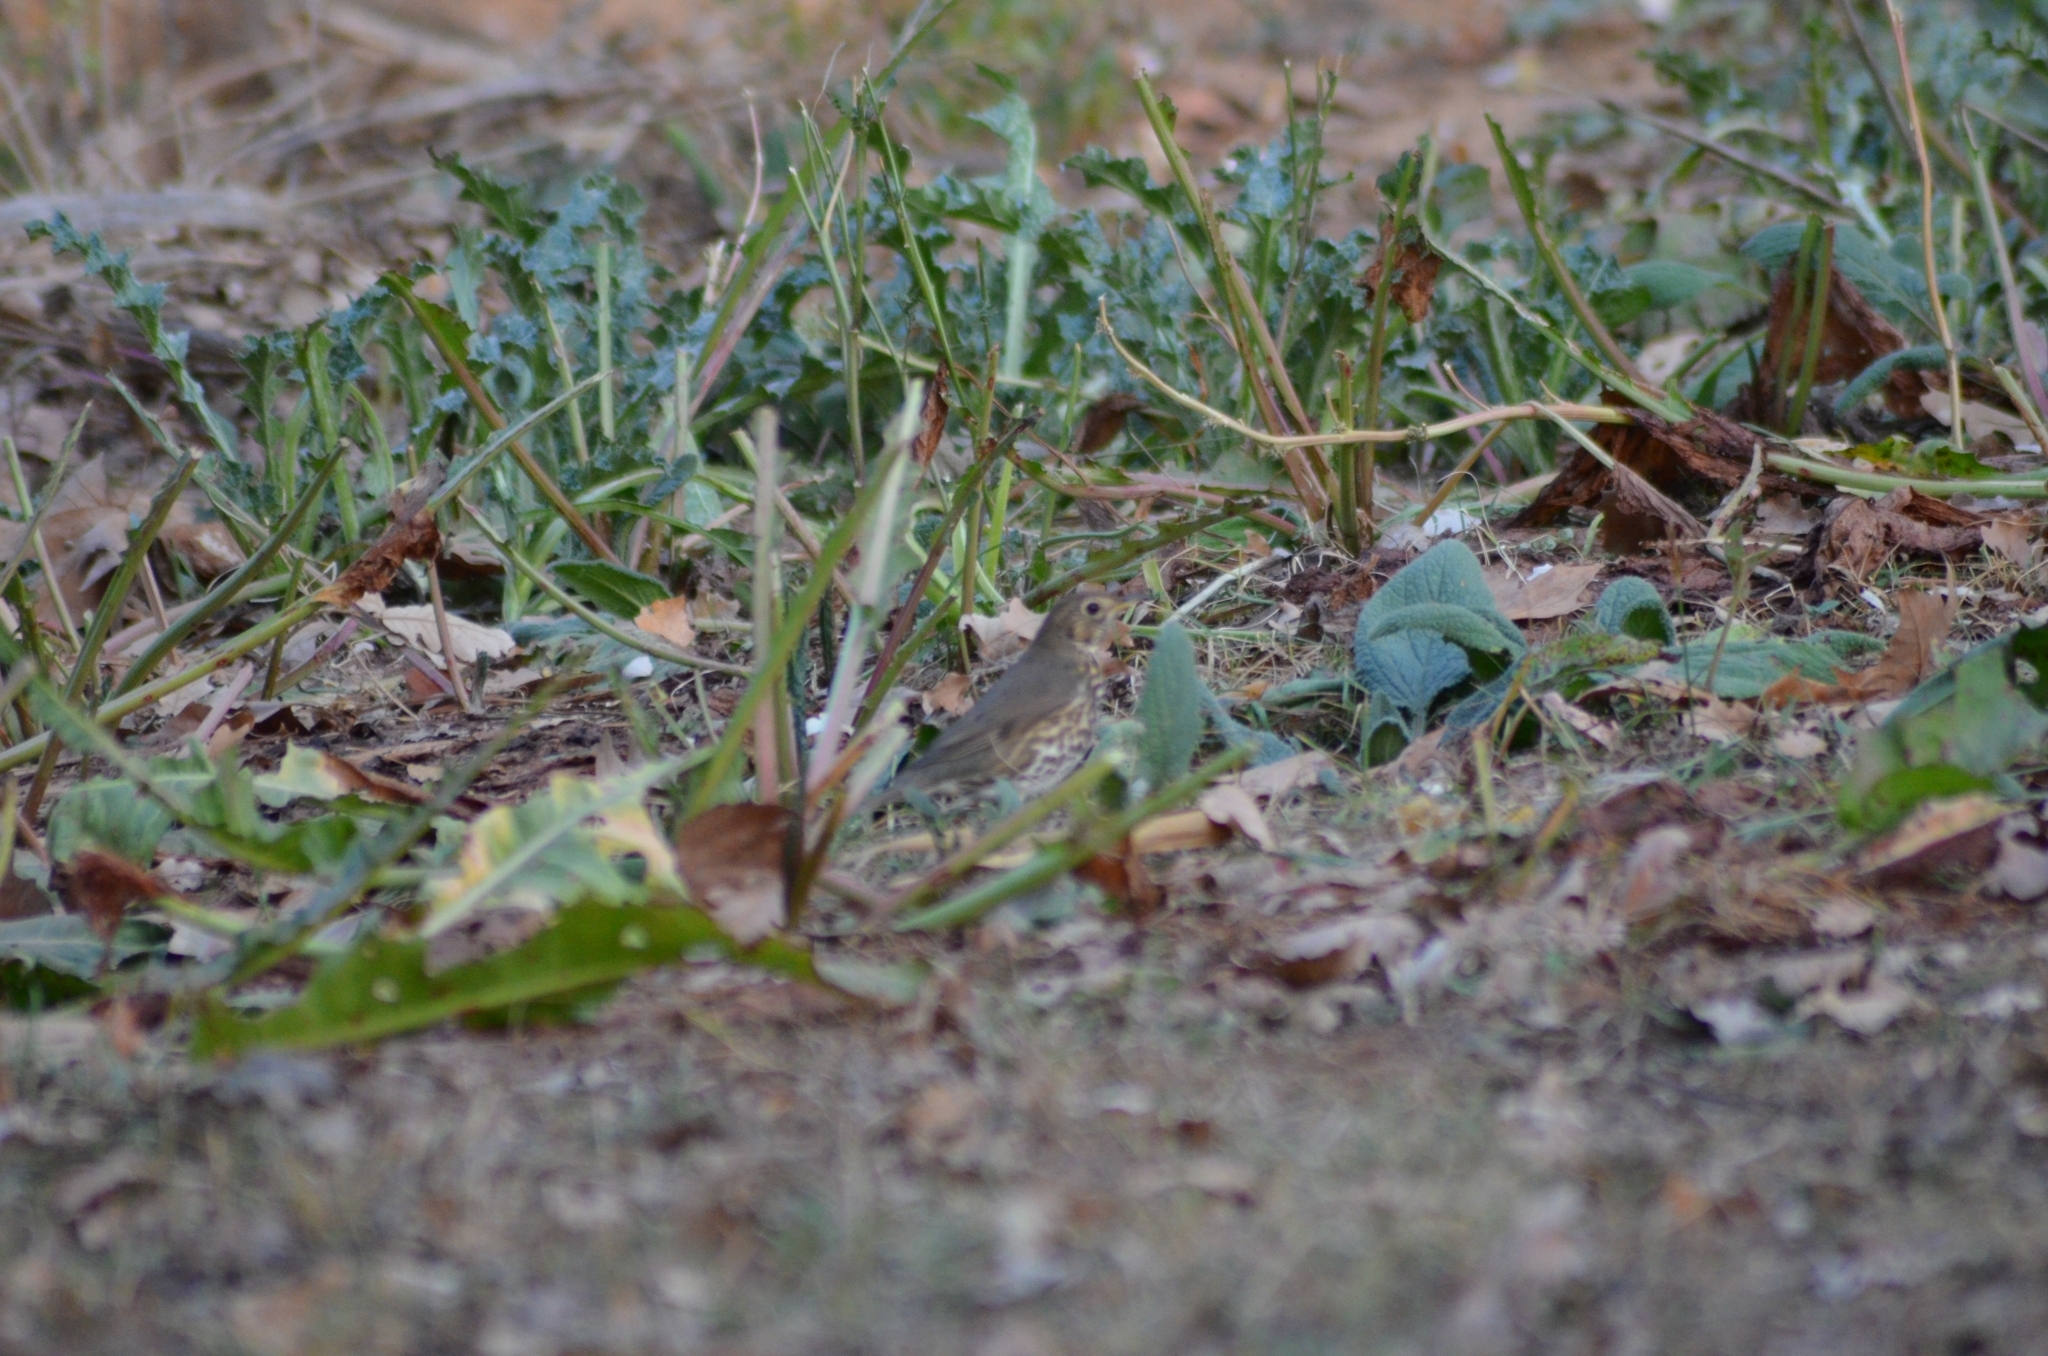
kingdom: Animalia
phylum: Chordata
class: Aves
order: Passeriformes
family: Turdidae
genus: Turdus
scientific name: Turdus philomelos
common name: Song thrush
